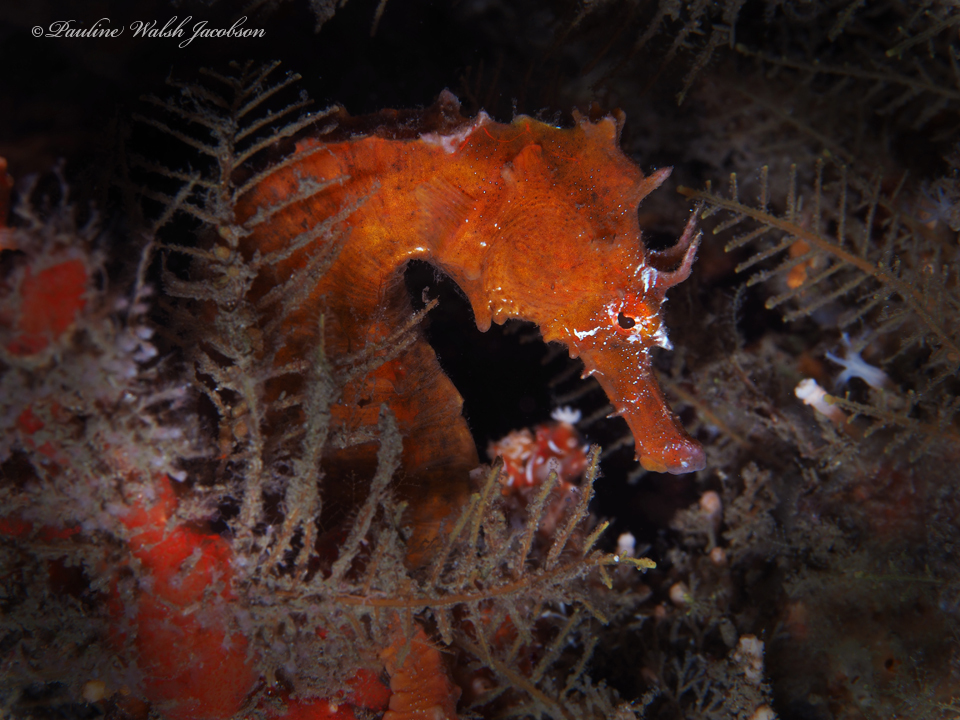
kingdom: Animalia
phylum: Chordata
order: Syngnathiformes
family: Syngnathidae
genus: Hippocampus
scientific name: Hippocampus erectus
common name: Lined seahorse
